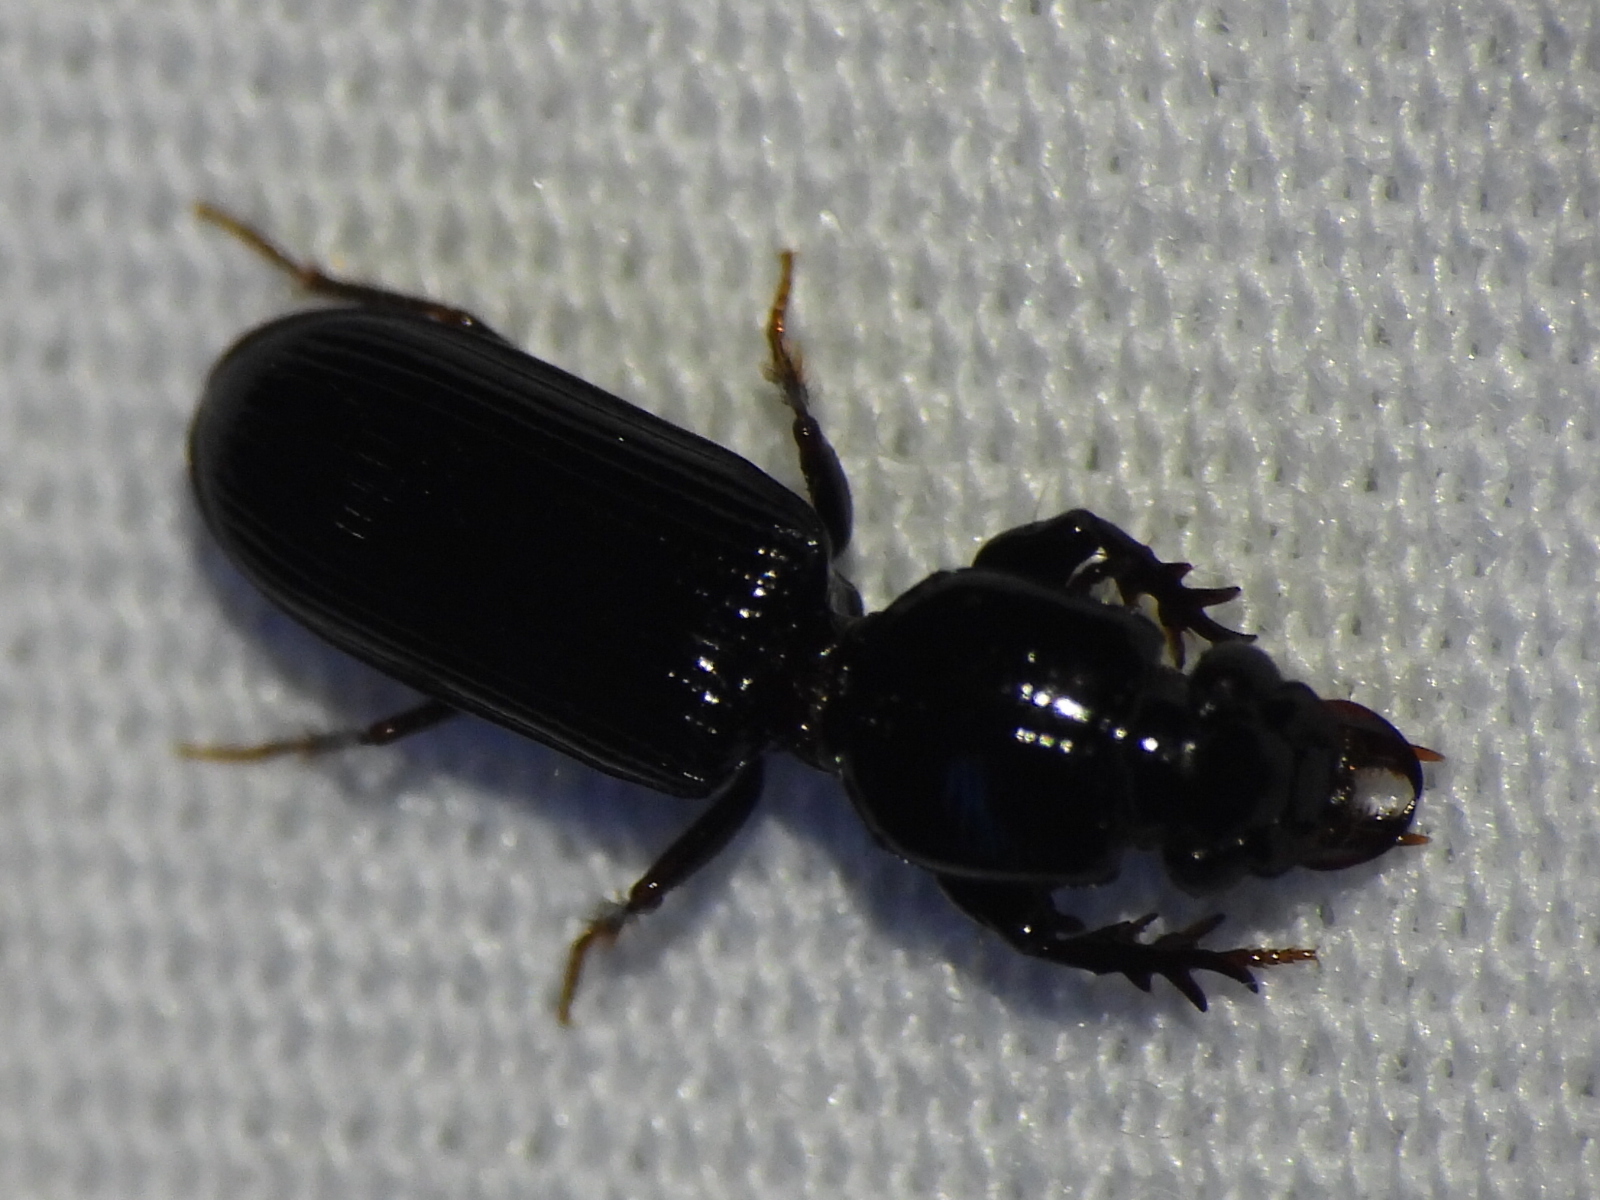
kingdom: Animalia
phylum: Arthropoda
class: Insecta
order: Coleoptera
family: Carabidae
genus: Semiclivina
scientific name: Semiclivina dentipes
